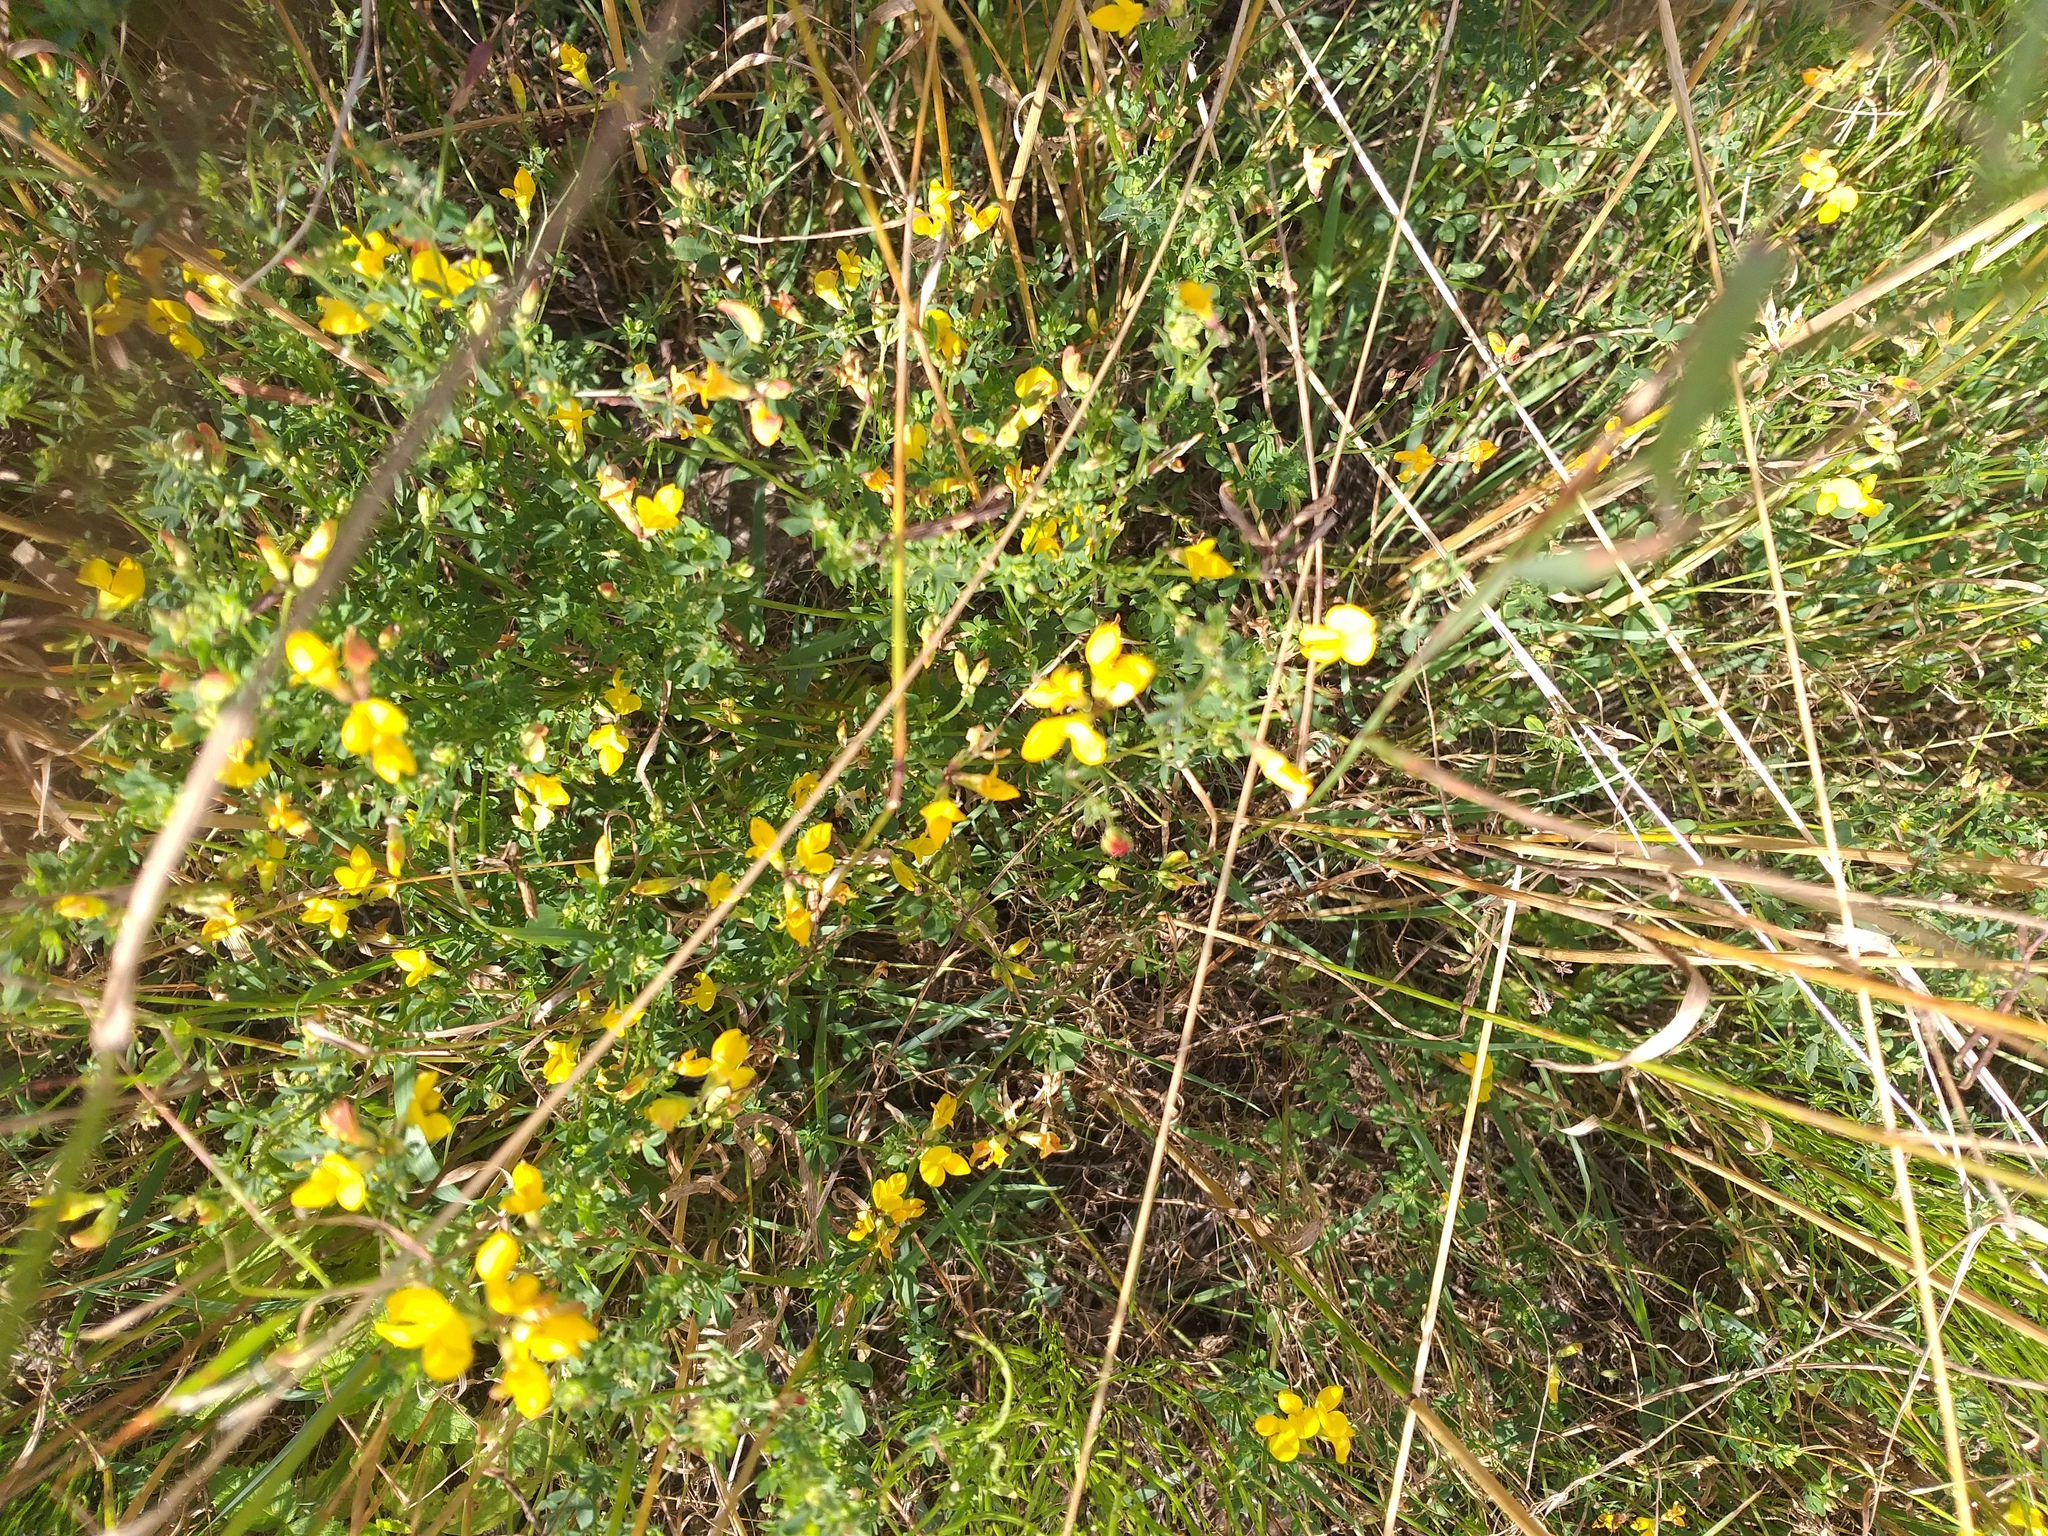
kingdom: Plantae
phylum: Tracheophyta
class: Magnoliopsida
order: Fabales
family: Fabaceae
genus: Lotus
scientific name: Lotus corniculatus
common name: Common bird's-foot-trefoil
